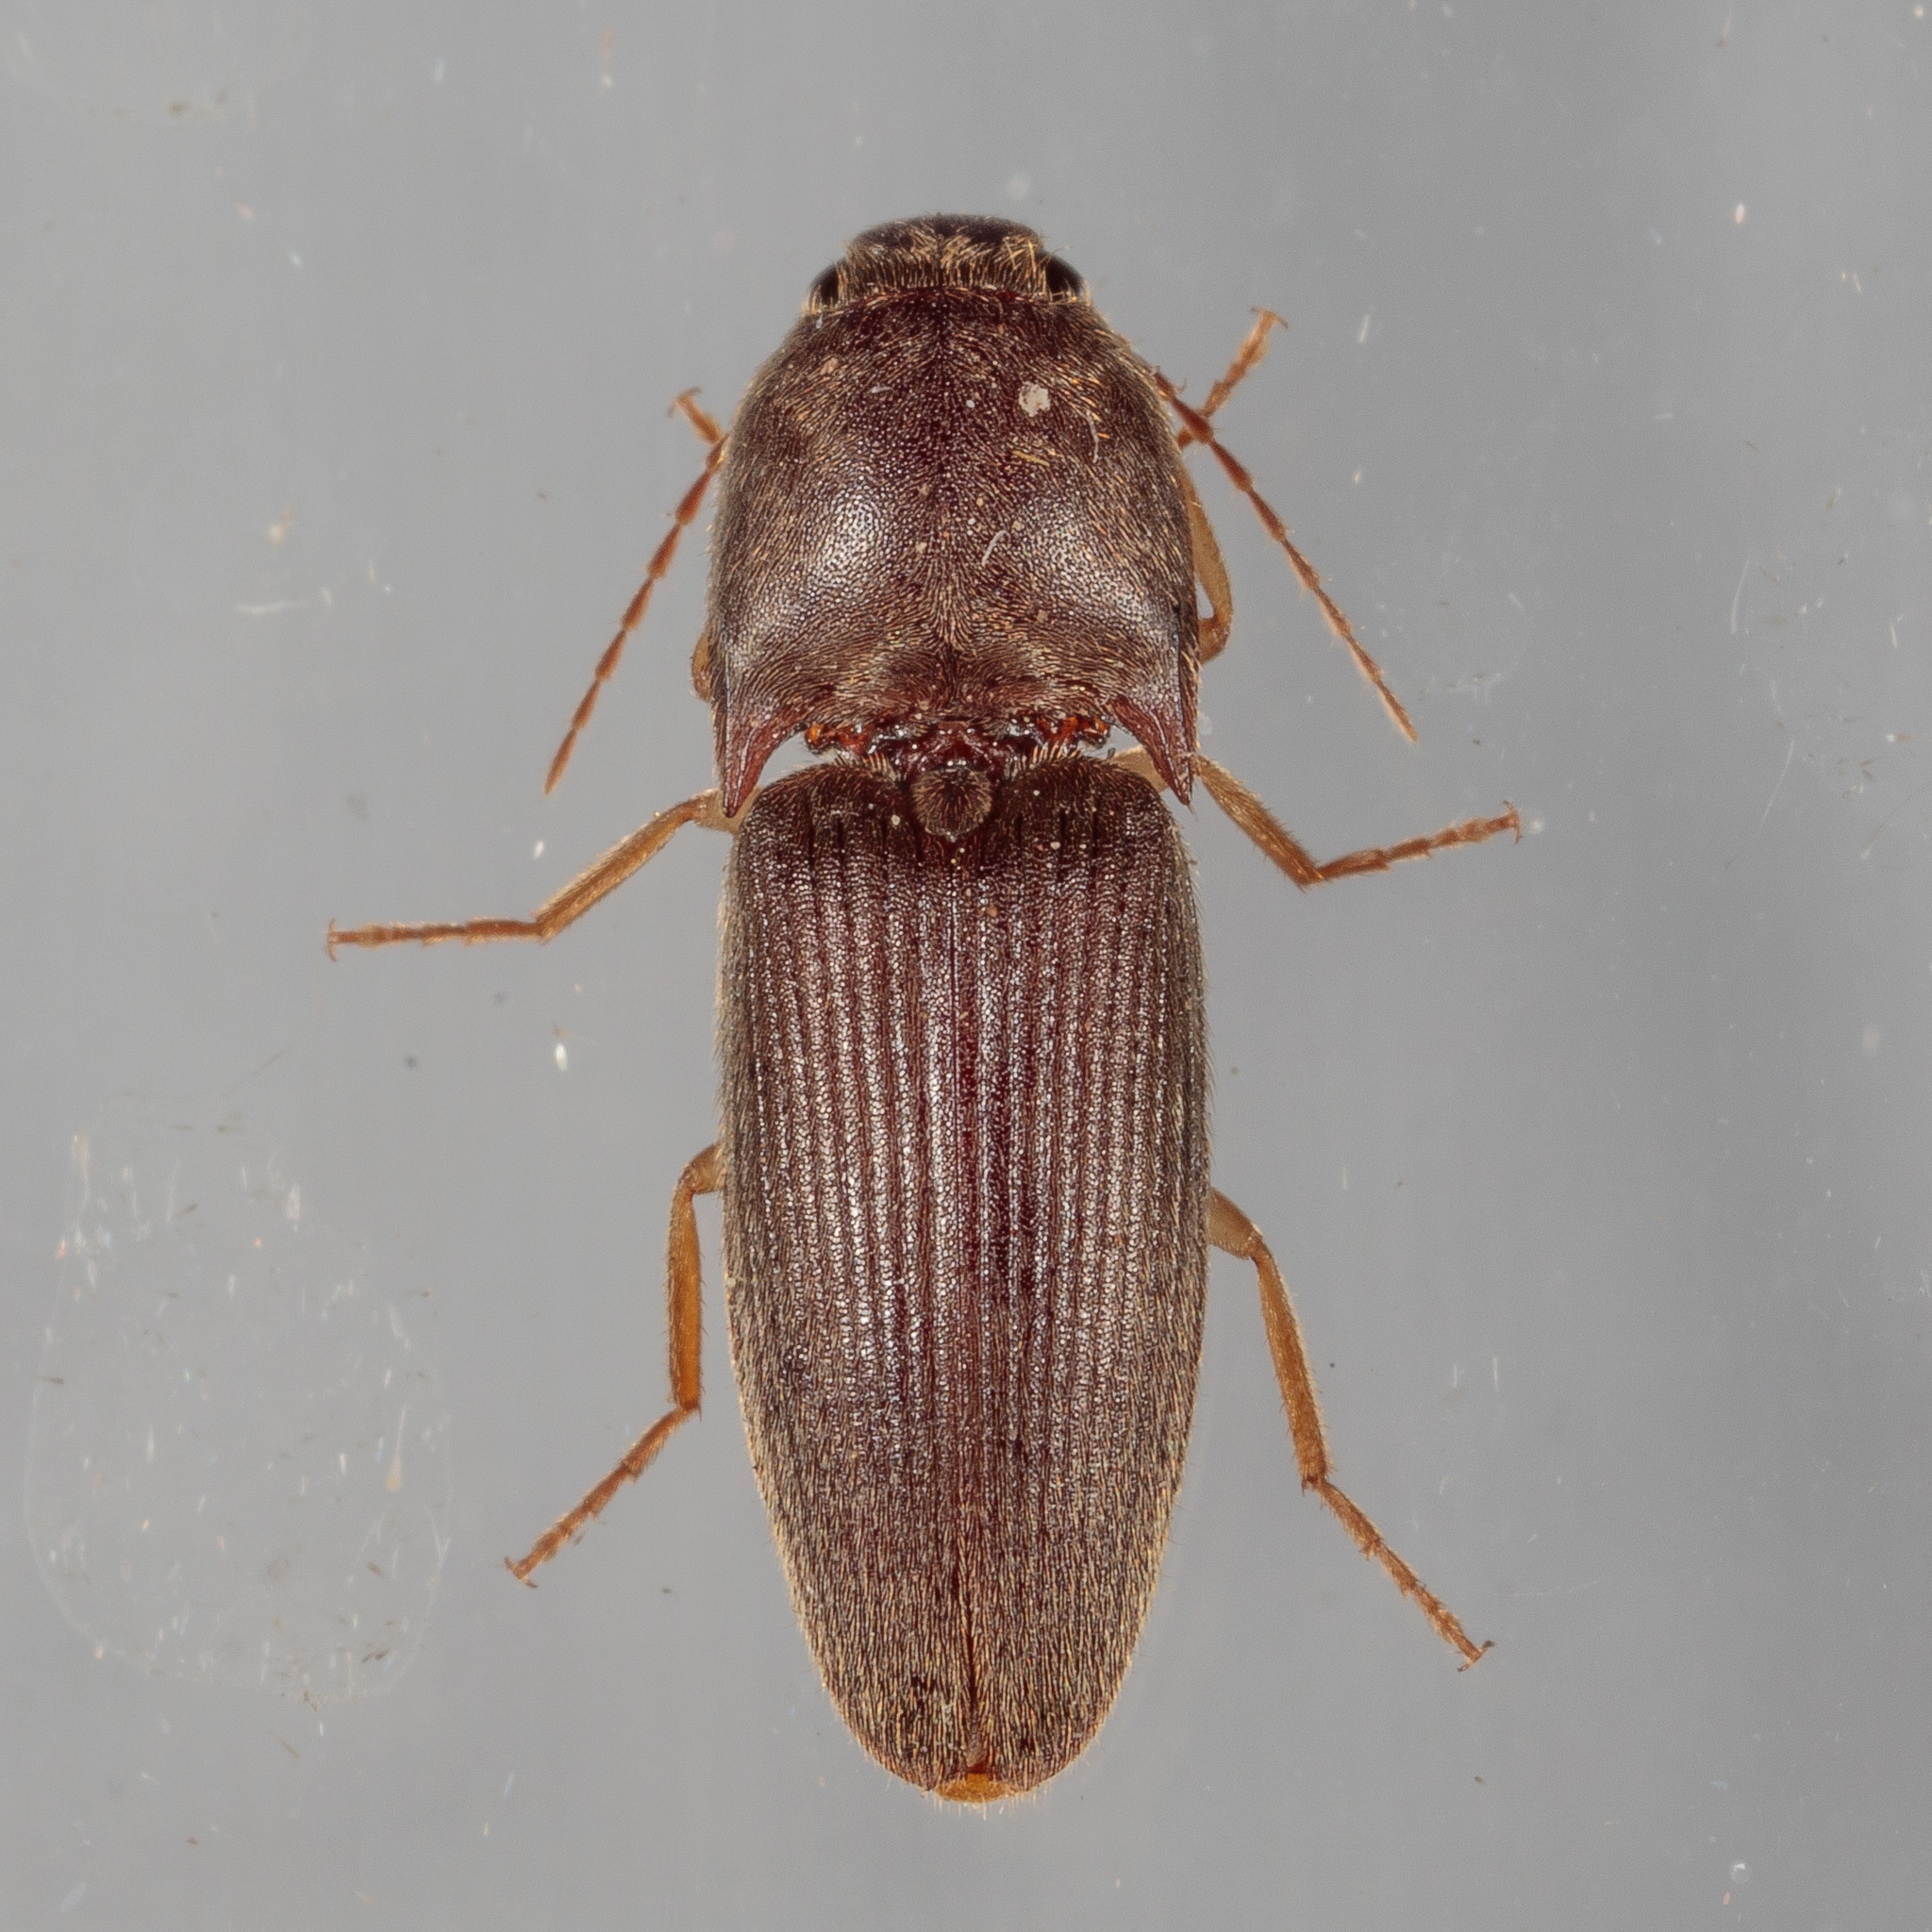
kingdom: Animalia
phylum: Arthropoda
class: Insecta
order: Coleoptera
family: Elateridae
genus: Conoderus
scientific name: Conoderus exsul
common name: Click beetle
